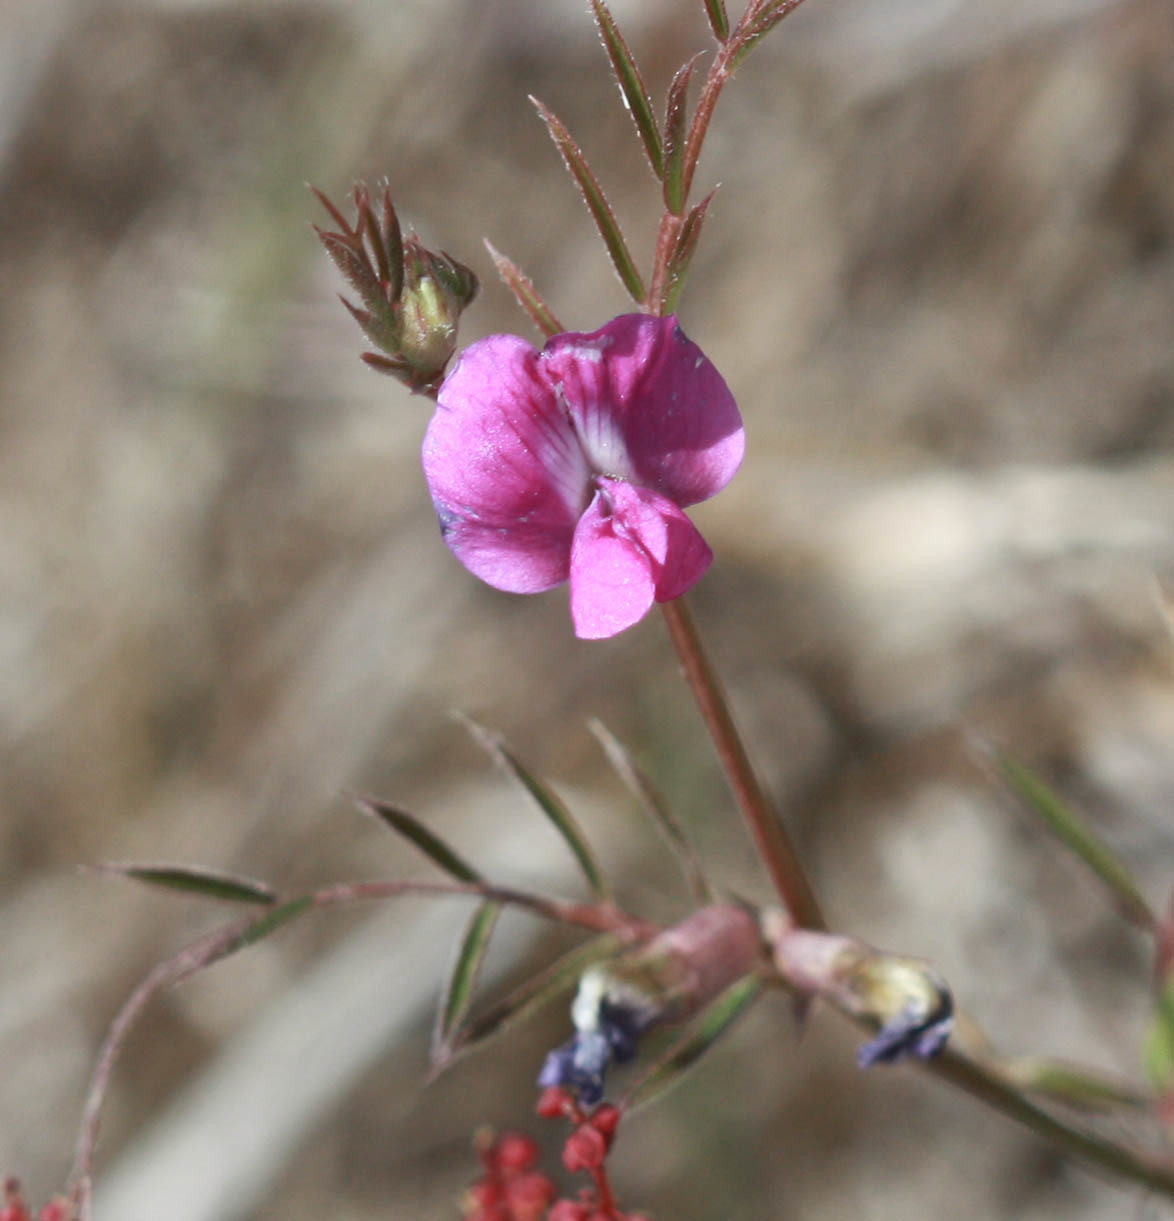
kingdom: Plantae
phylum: Tracheophyta
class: Magnoliopsida
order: Fabales
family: Fabaceae
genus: Vicia
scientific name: Vicia sativa
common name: Garden vetch
